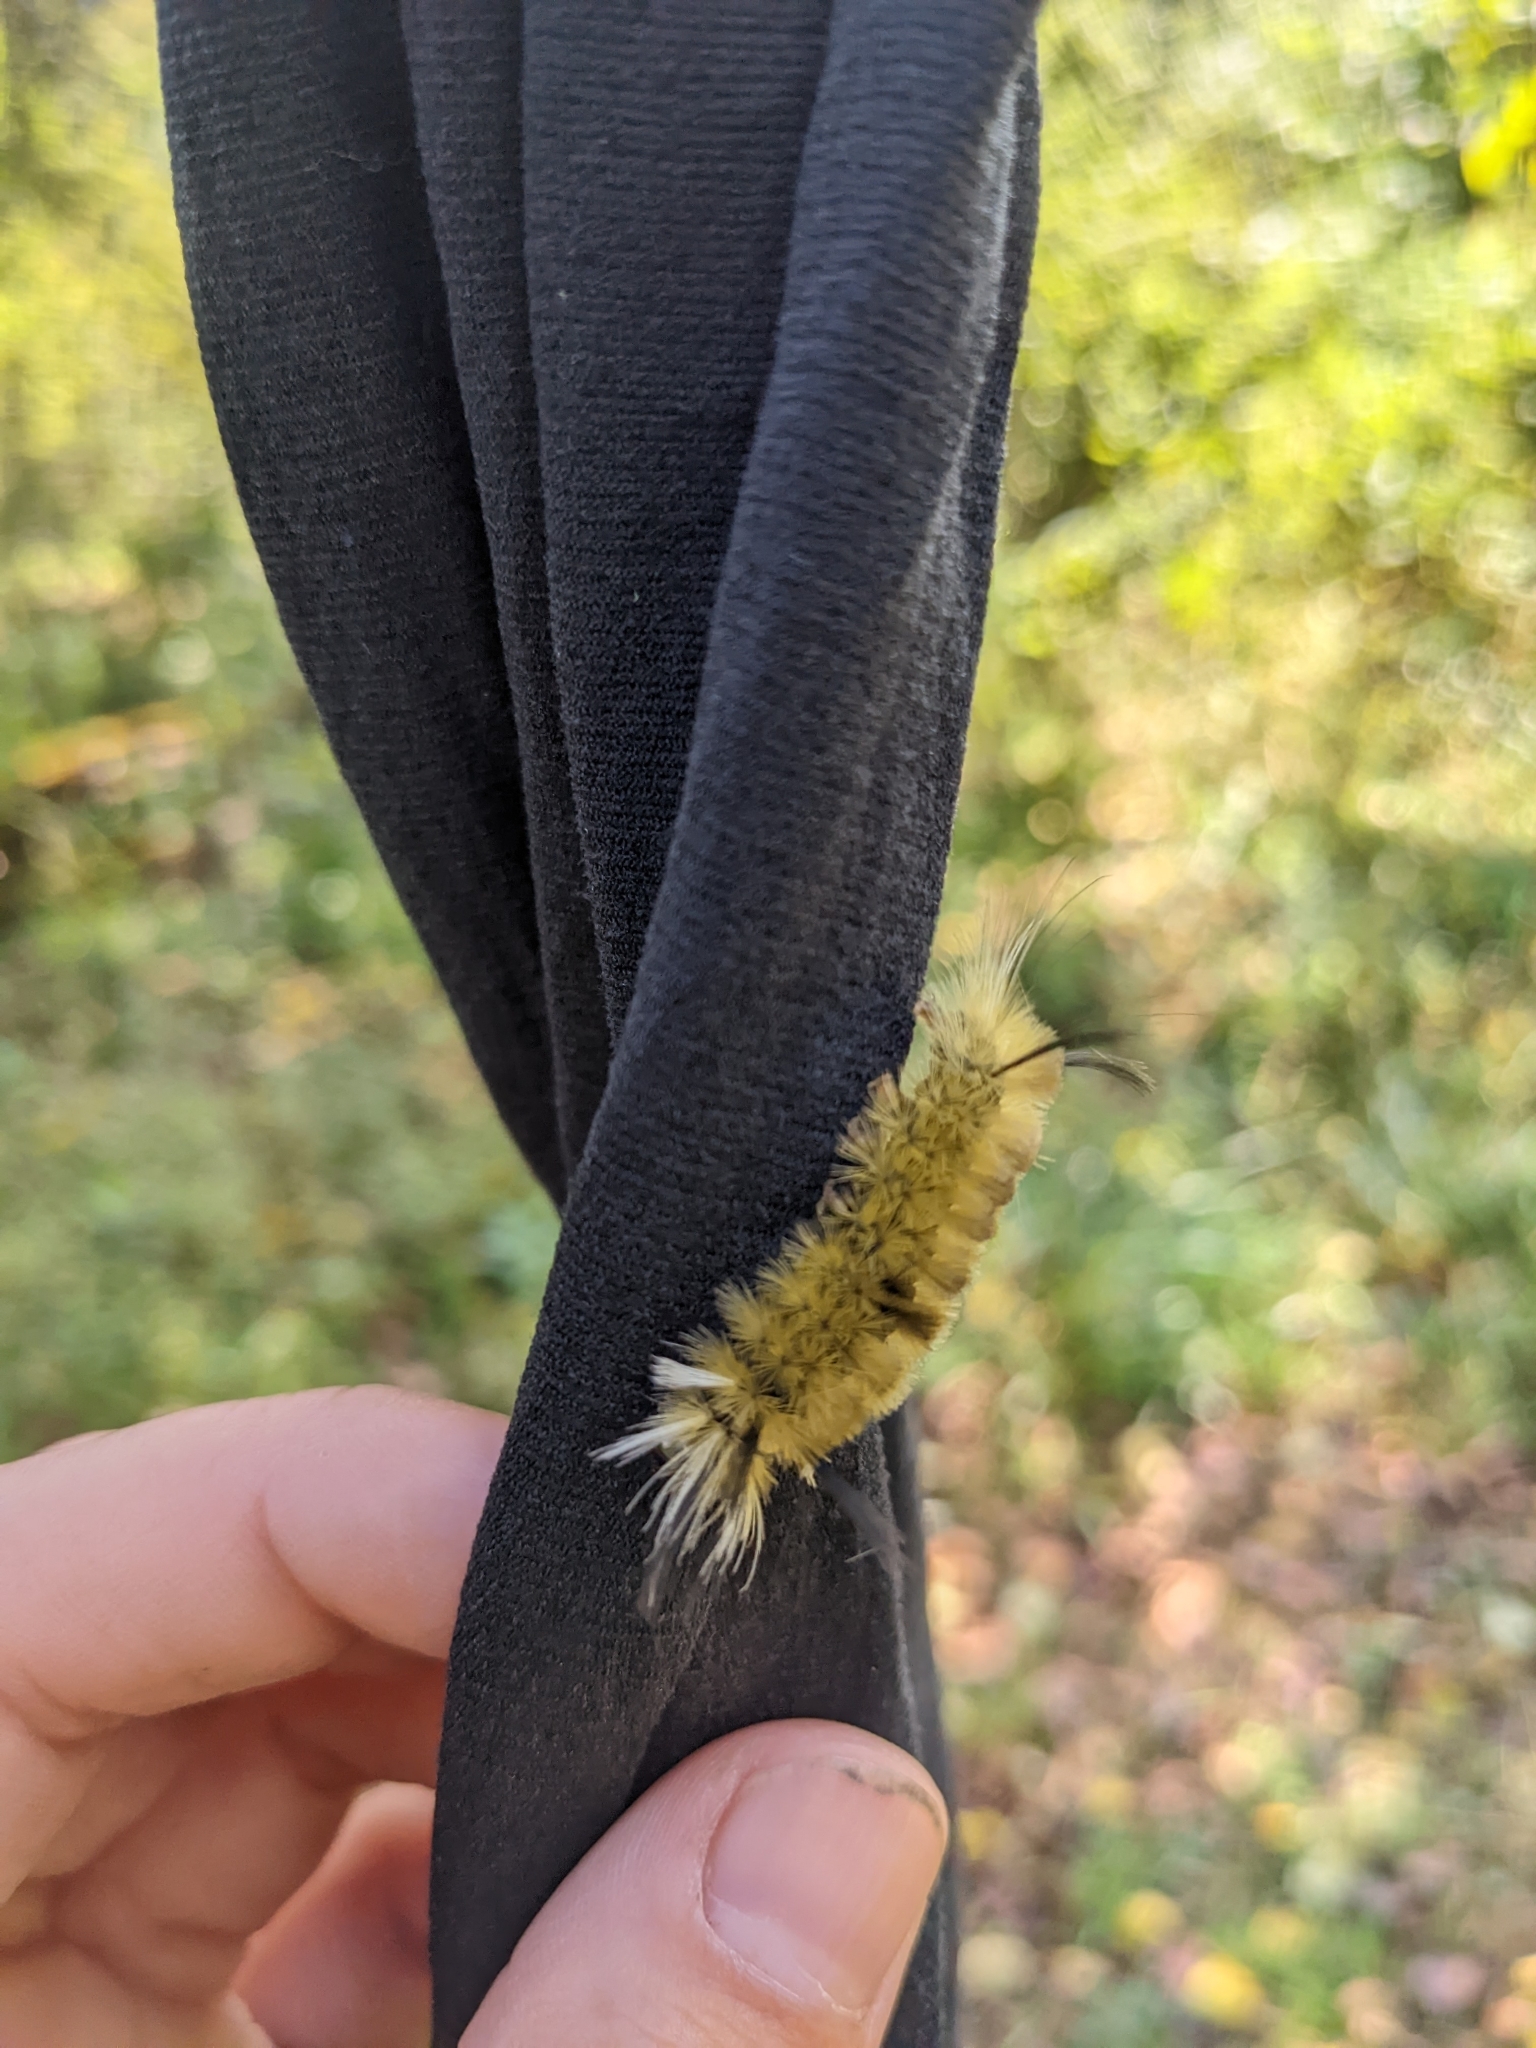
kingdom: Animalia
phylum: Arthropoda
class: Insecta
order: Lepidoptera
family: Erebidae
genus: Halysidota
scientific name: Halysidota tessellaris
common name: Banded tussock moth
